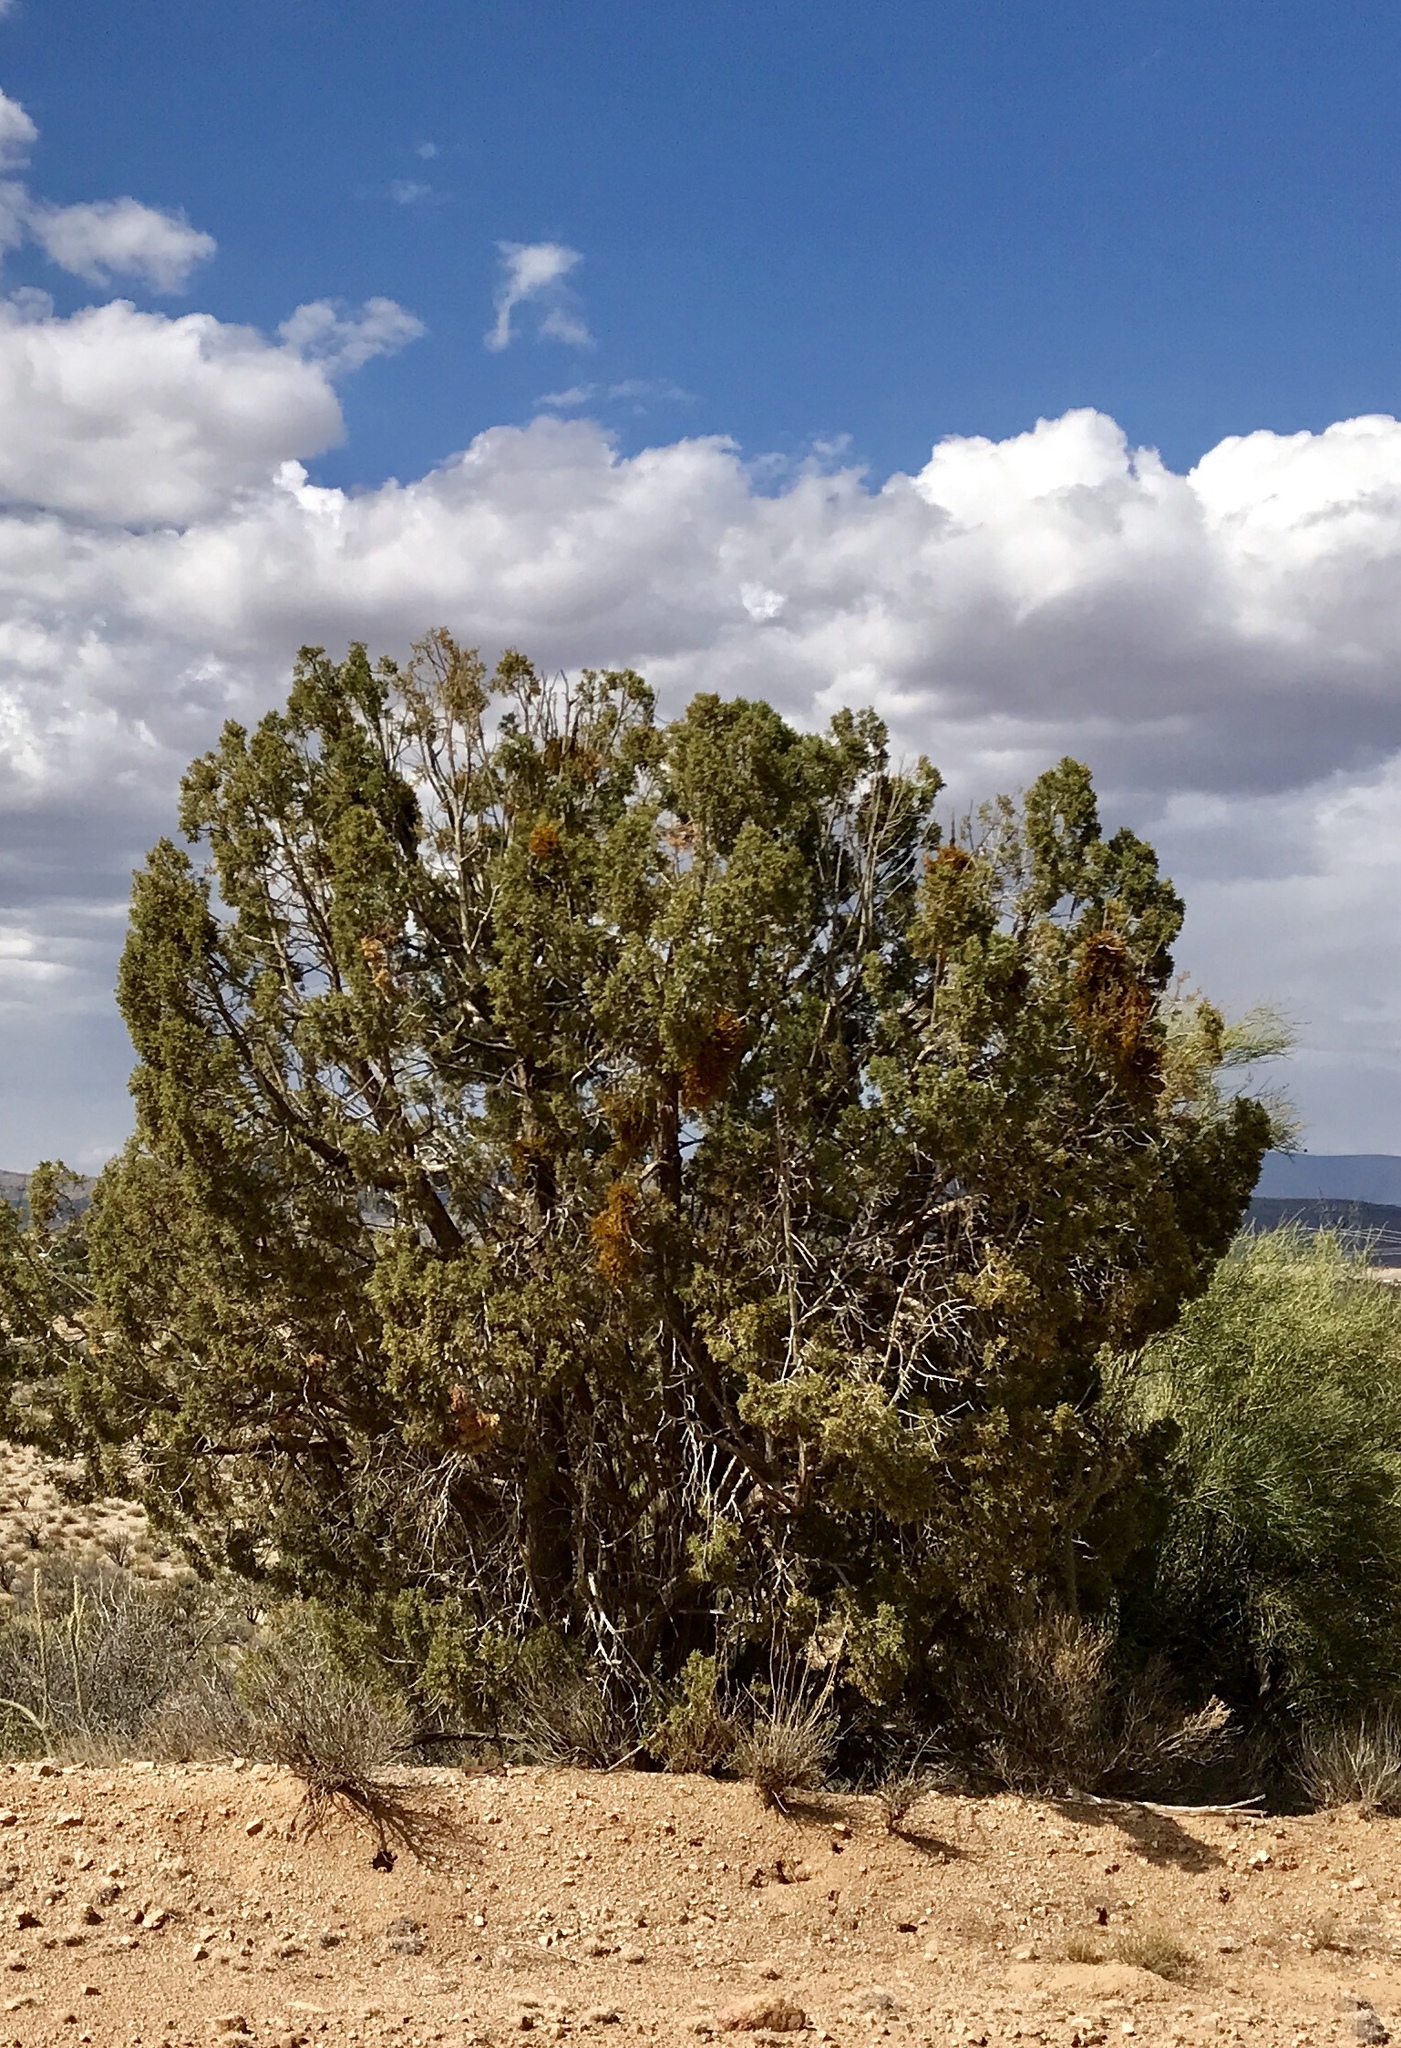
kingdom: Plantae
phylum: Tracheophyta
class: Pinopsida
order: Pinales
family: Cupressaceae
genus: Juniperus
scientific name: Juniperus osteosperma
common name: Utah juniper
